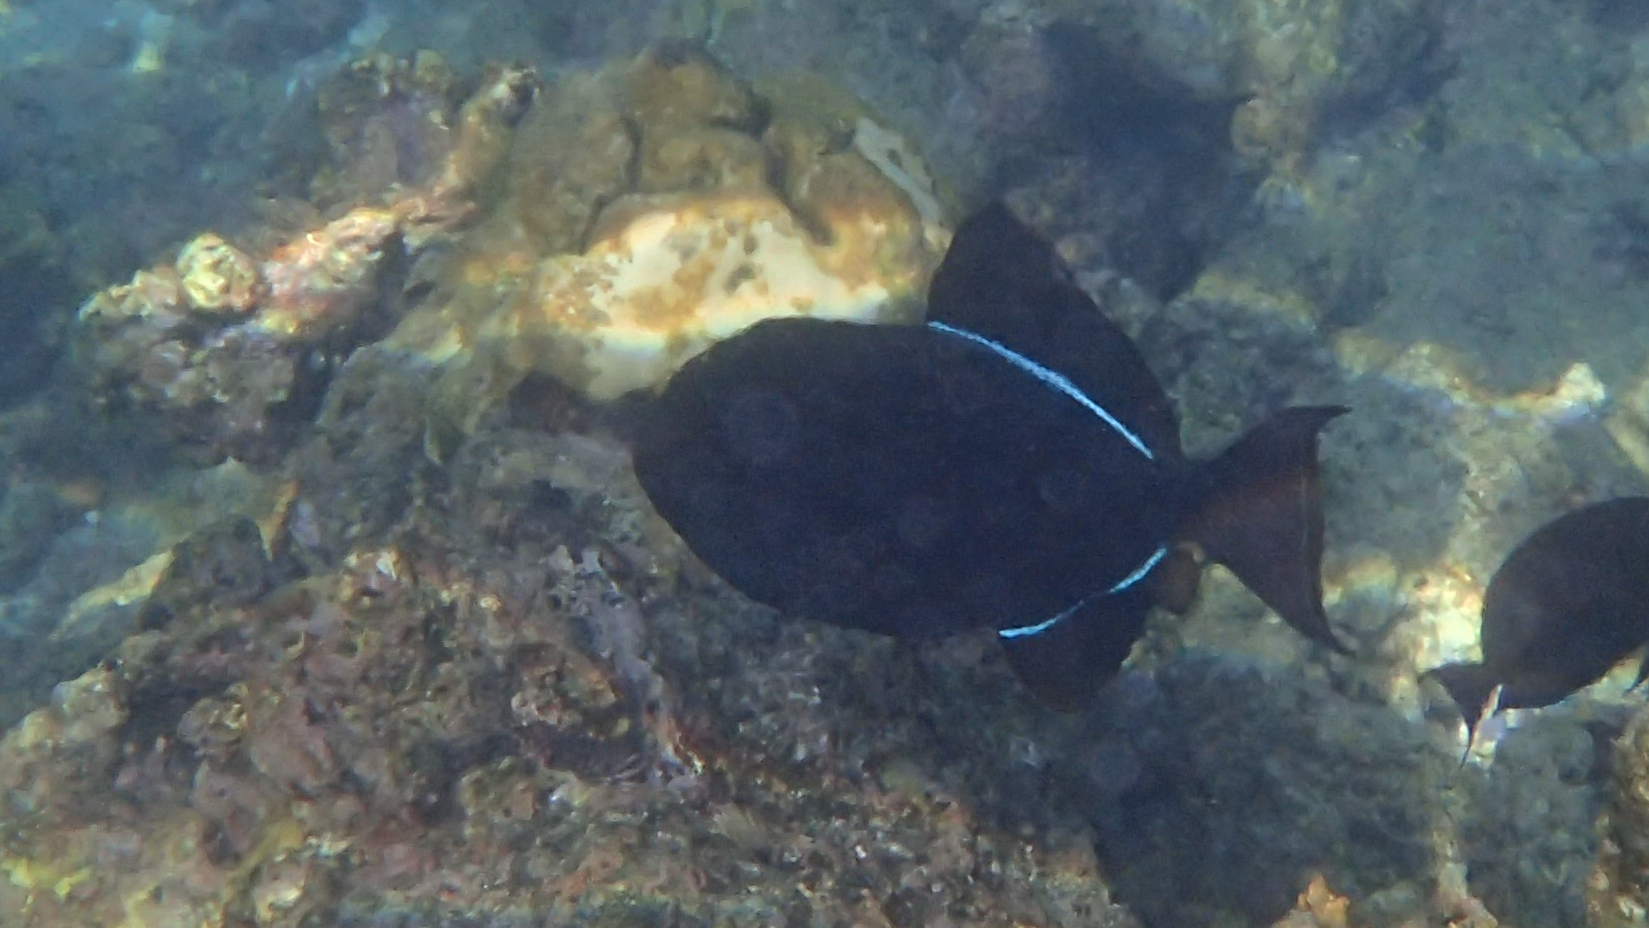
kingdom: Animalia
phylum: Chordata
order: Tetraodontiformes
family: Balistidae
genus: Melichthys
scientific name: Melichthys niger
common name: Black durgon
